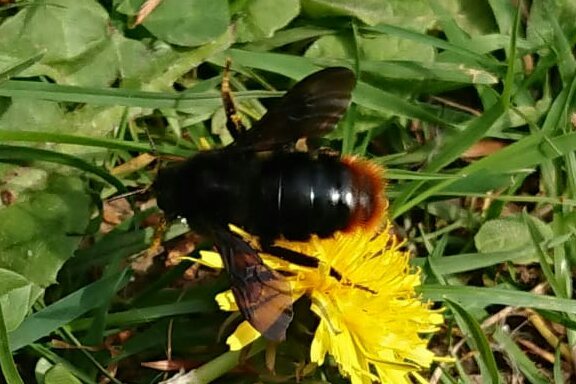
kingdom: Animalia
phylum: Arthropoda
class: Insecta
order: Hymenoptera
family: Apidae
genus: Bombus
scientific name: Bombus rupestris
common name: Hill cuckoo-bee
